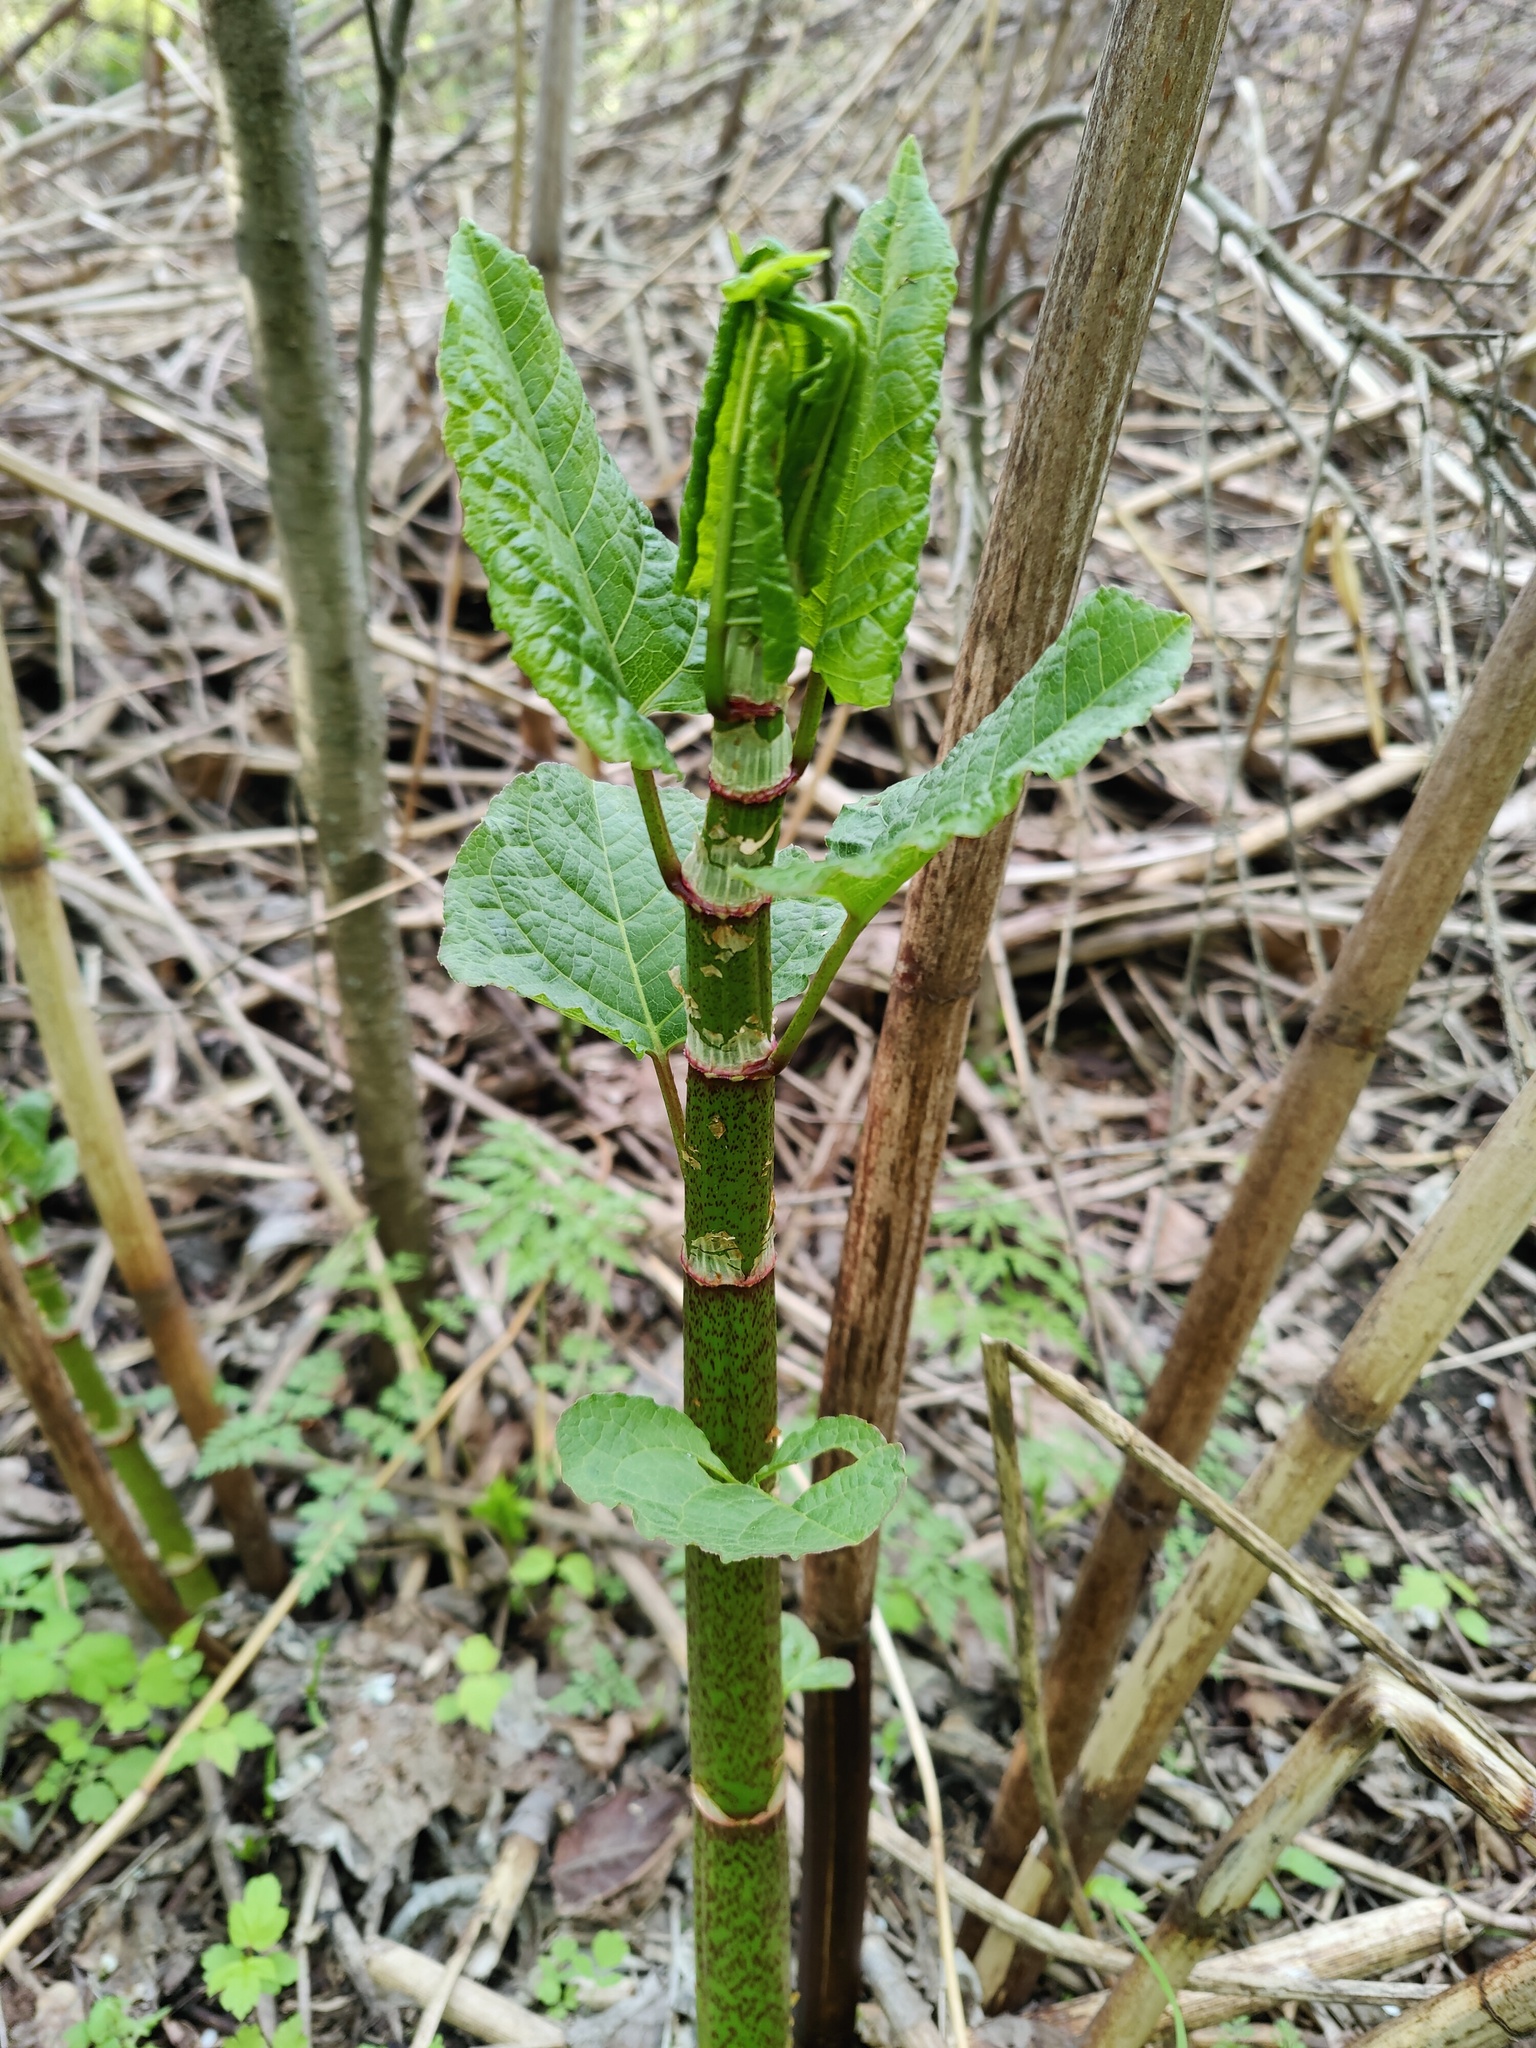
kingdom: Plantae
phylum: Tracheophyta
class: Magnoliopsida
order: Caryophyllales
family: Polygonaceae
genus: Reynoutria
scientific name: Reynoutria bohemica
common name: Bohemian knotweed
